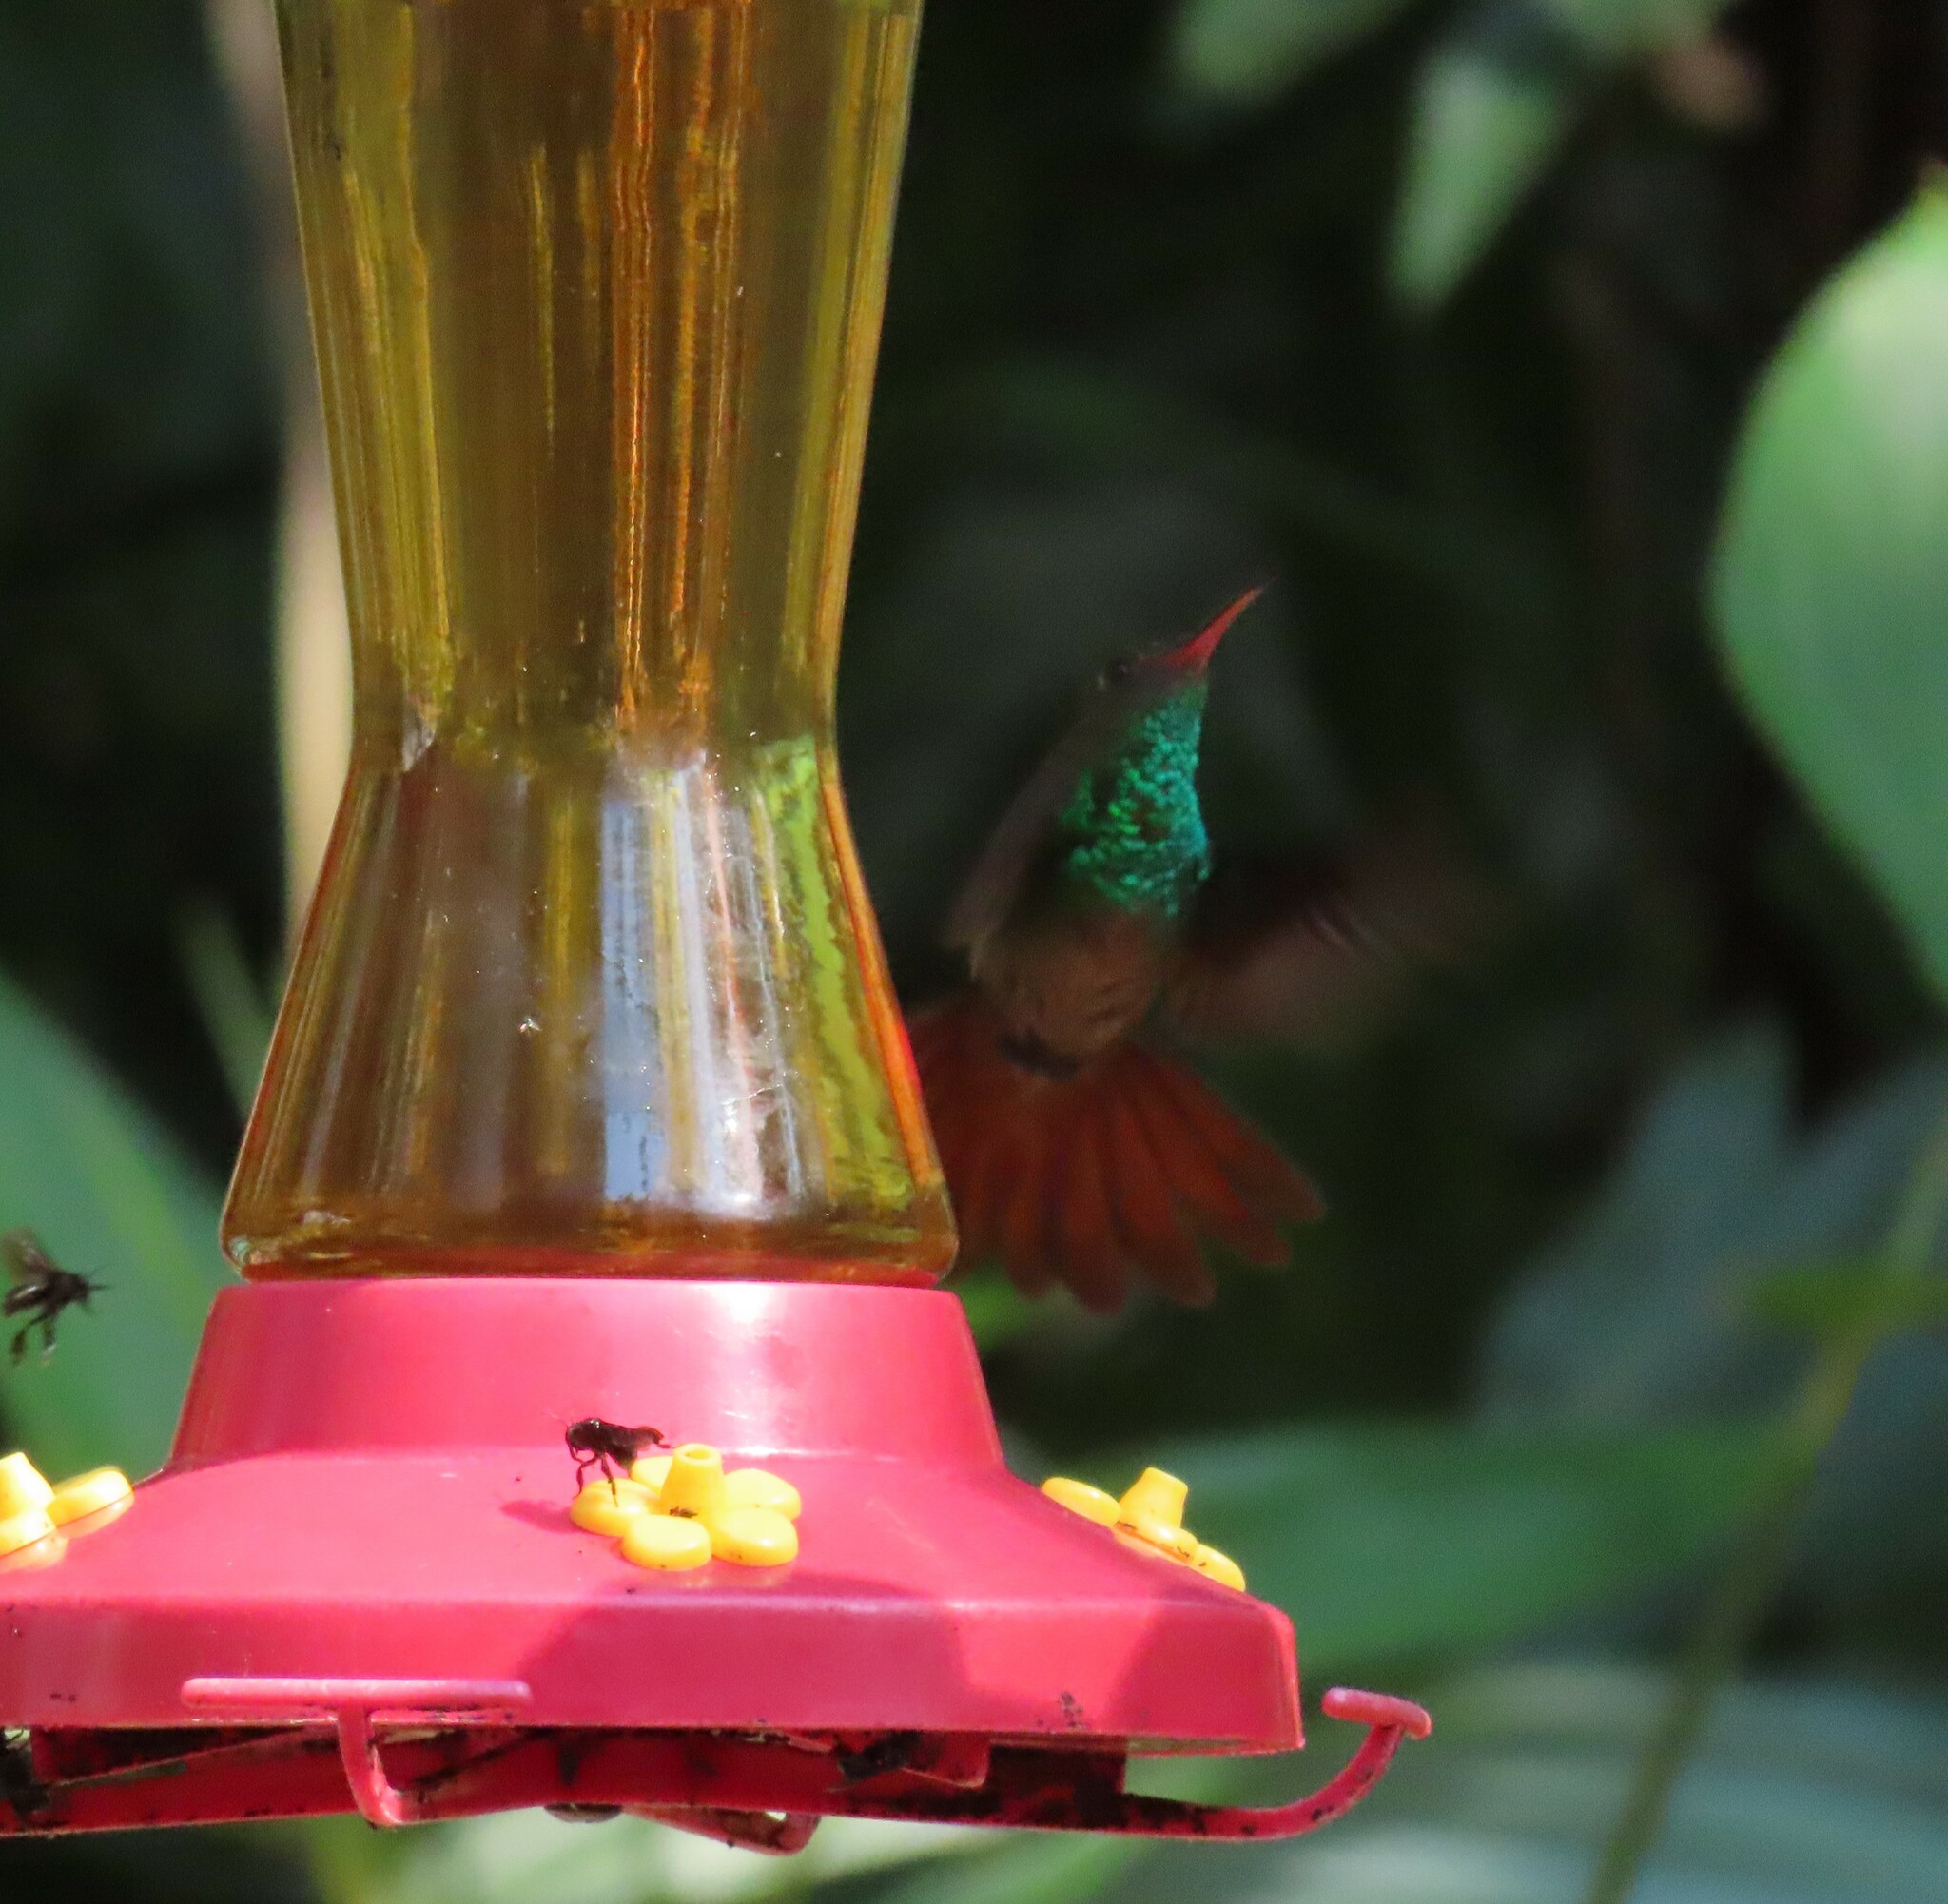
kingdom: Animalia
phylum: Chordata
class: Aves
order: Apodiformes
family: Trochilidae
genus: Amazilia
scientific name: Amazilia tzacatl
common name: Rufous-tailed hummingbird
